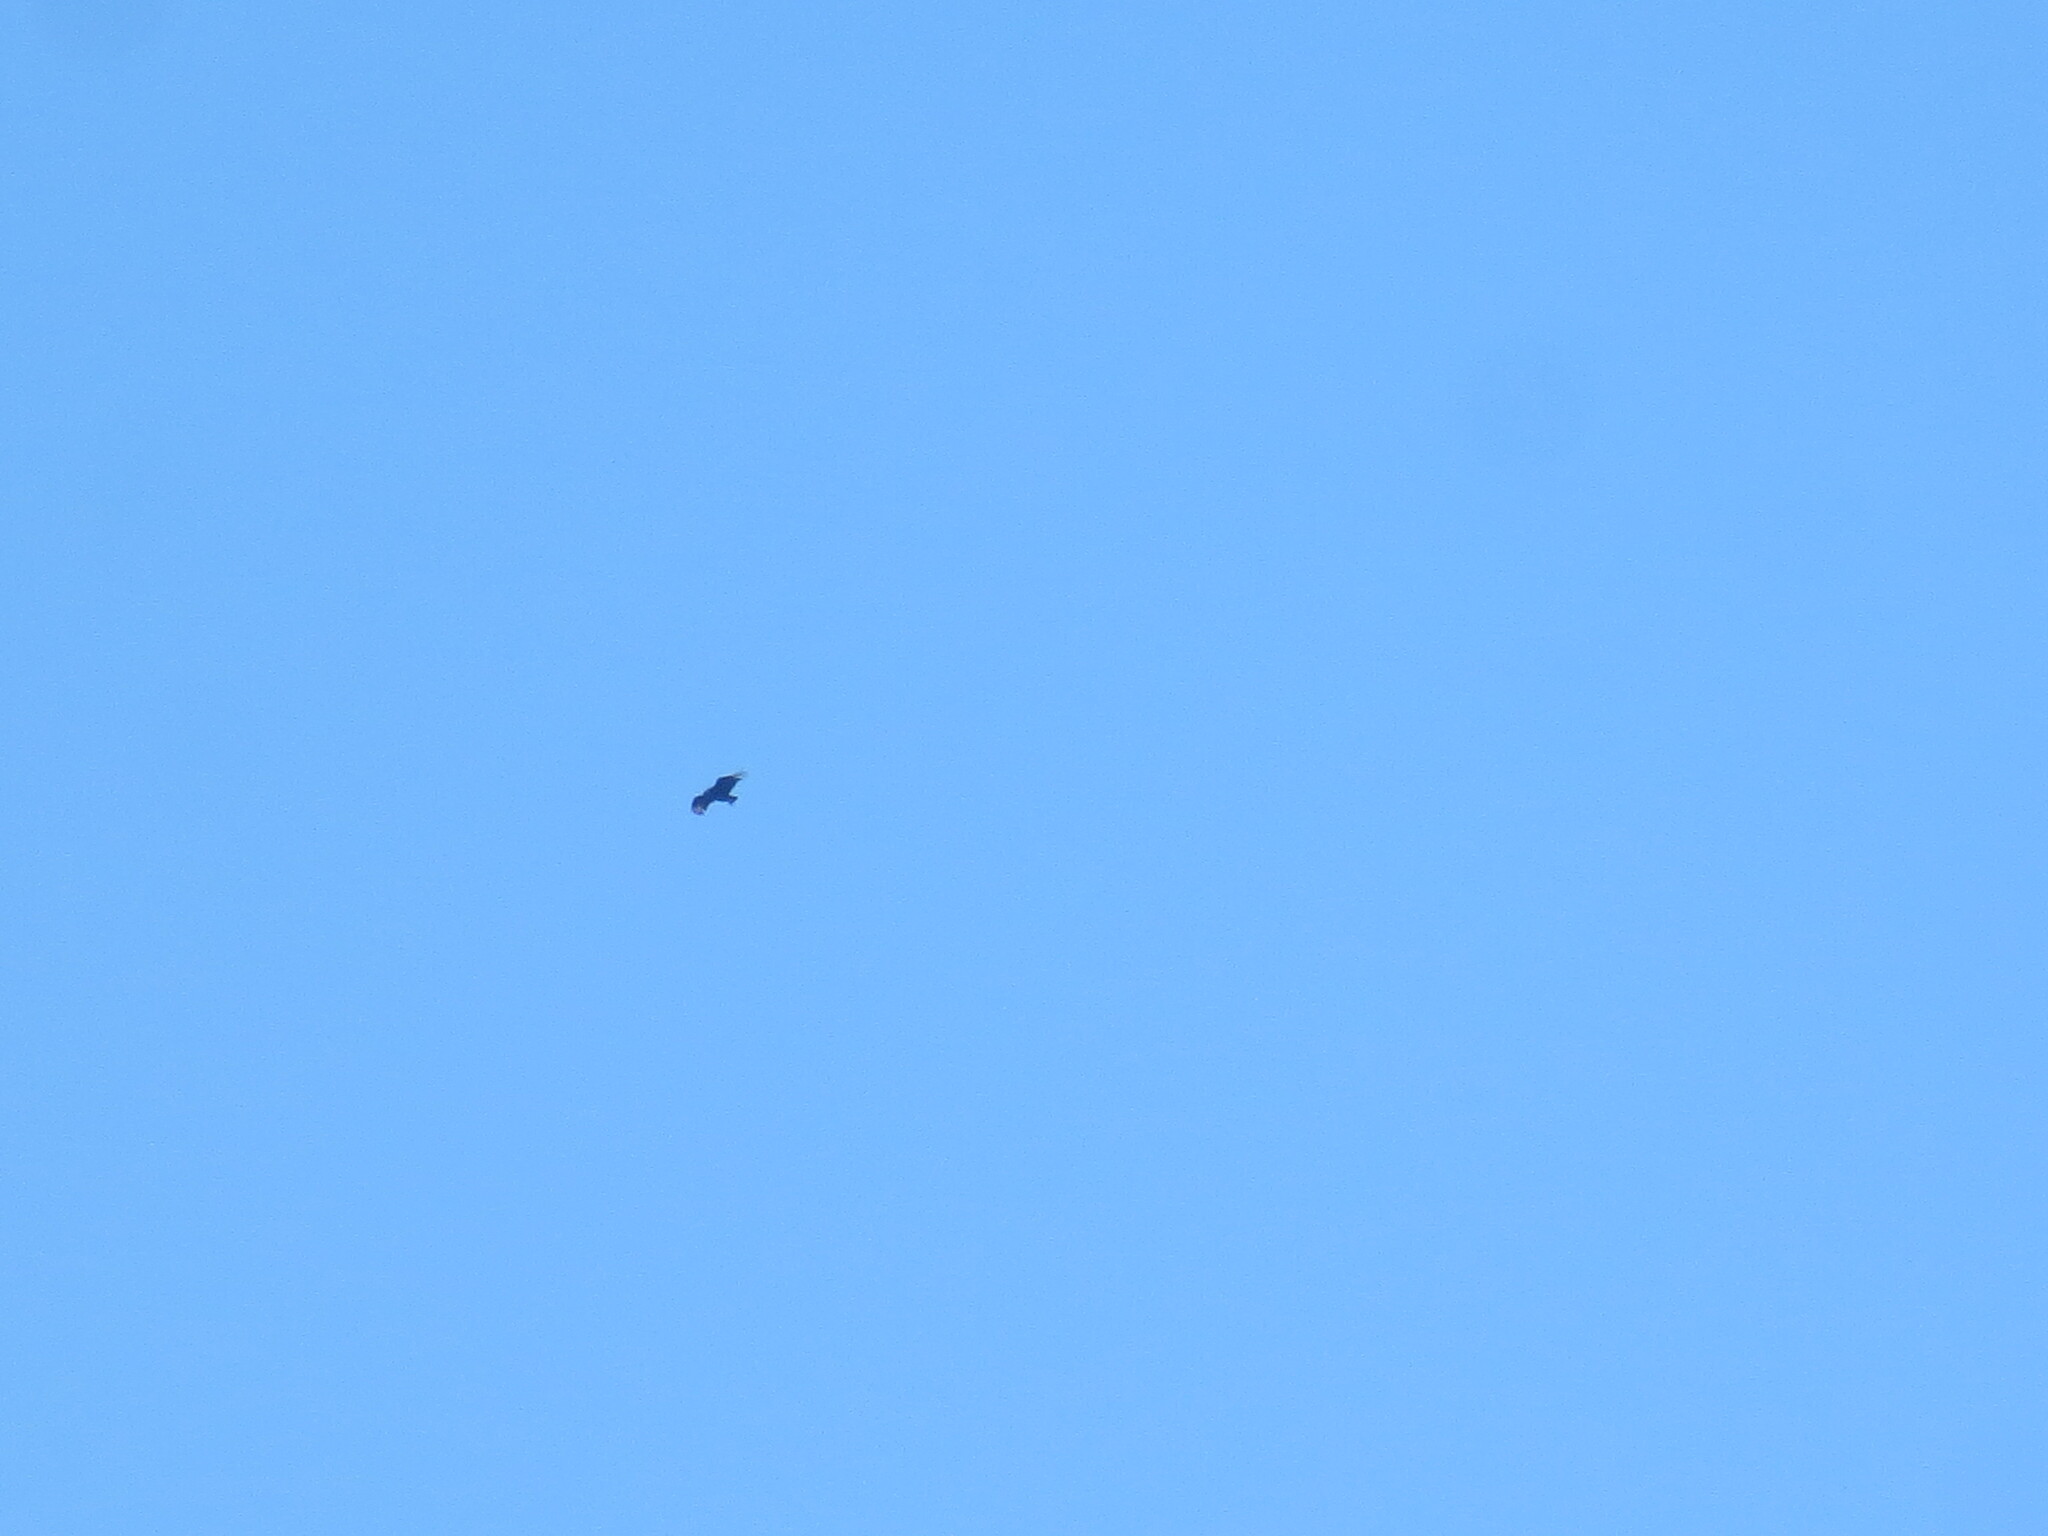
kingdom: Animalia
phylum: Chordata
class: Aves
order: Accipitriformes
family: Cathartidae
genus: Coragyps
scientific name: Coragyps atratus
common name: Black vulture
